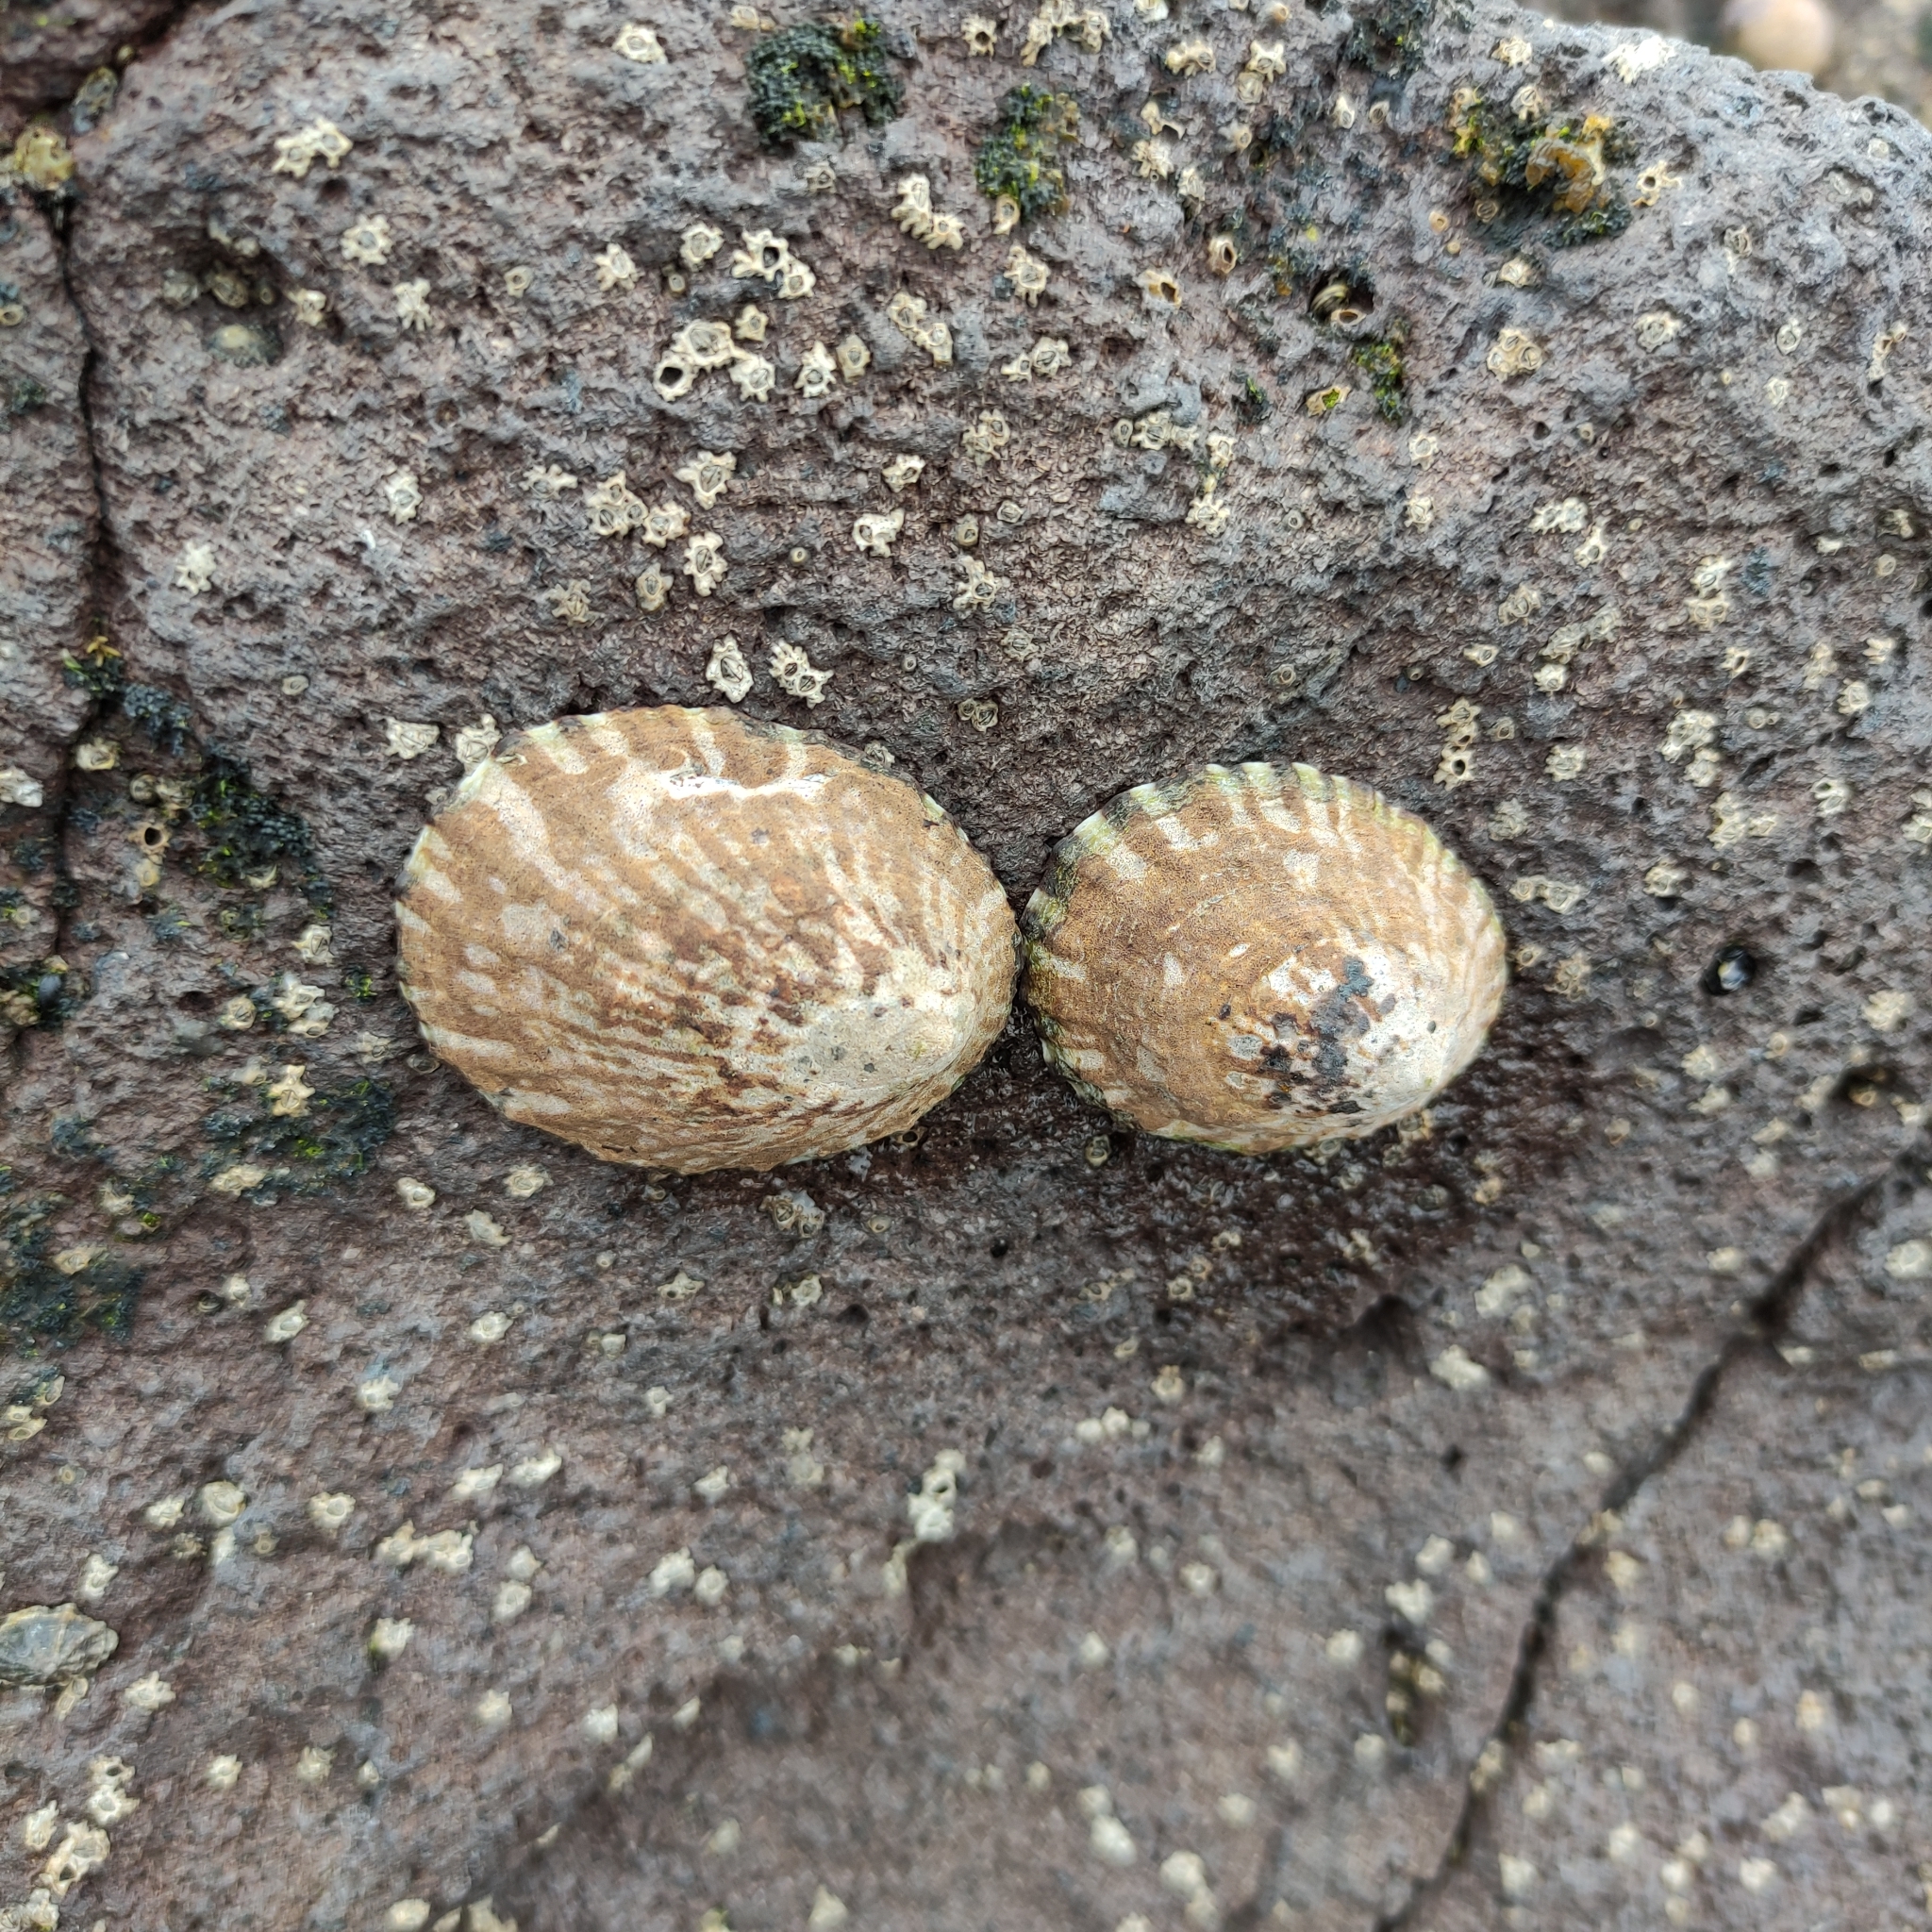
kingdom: Animalia
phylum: Mollusca
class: Gastropoda
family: Nacellidae
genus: Cellana
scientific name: Cellana radians
